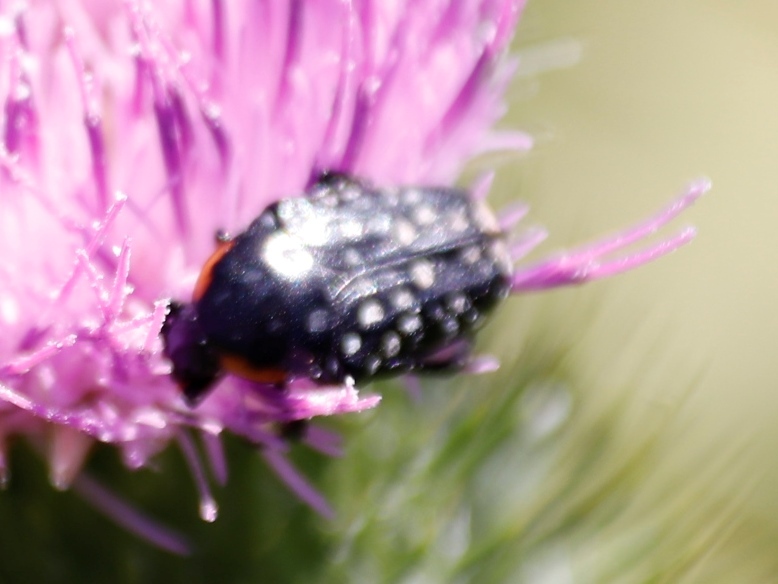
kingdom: Animalia
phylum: Arthropoda
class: Insecta
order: Coleoptera
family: Scarabaeidae
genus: Oxythyrea
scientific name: Oxythyrea
